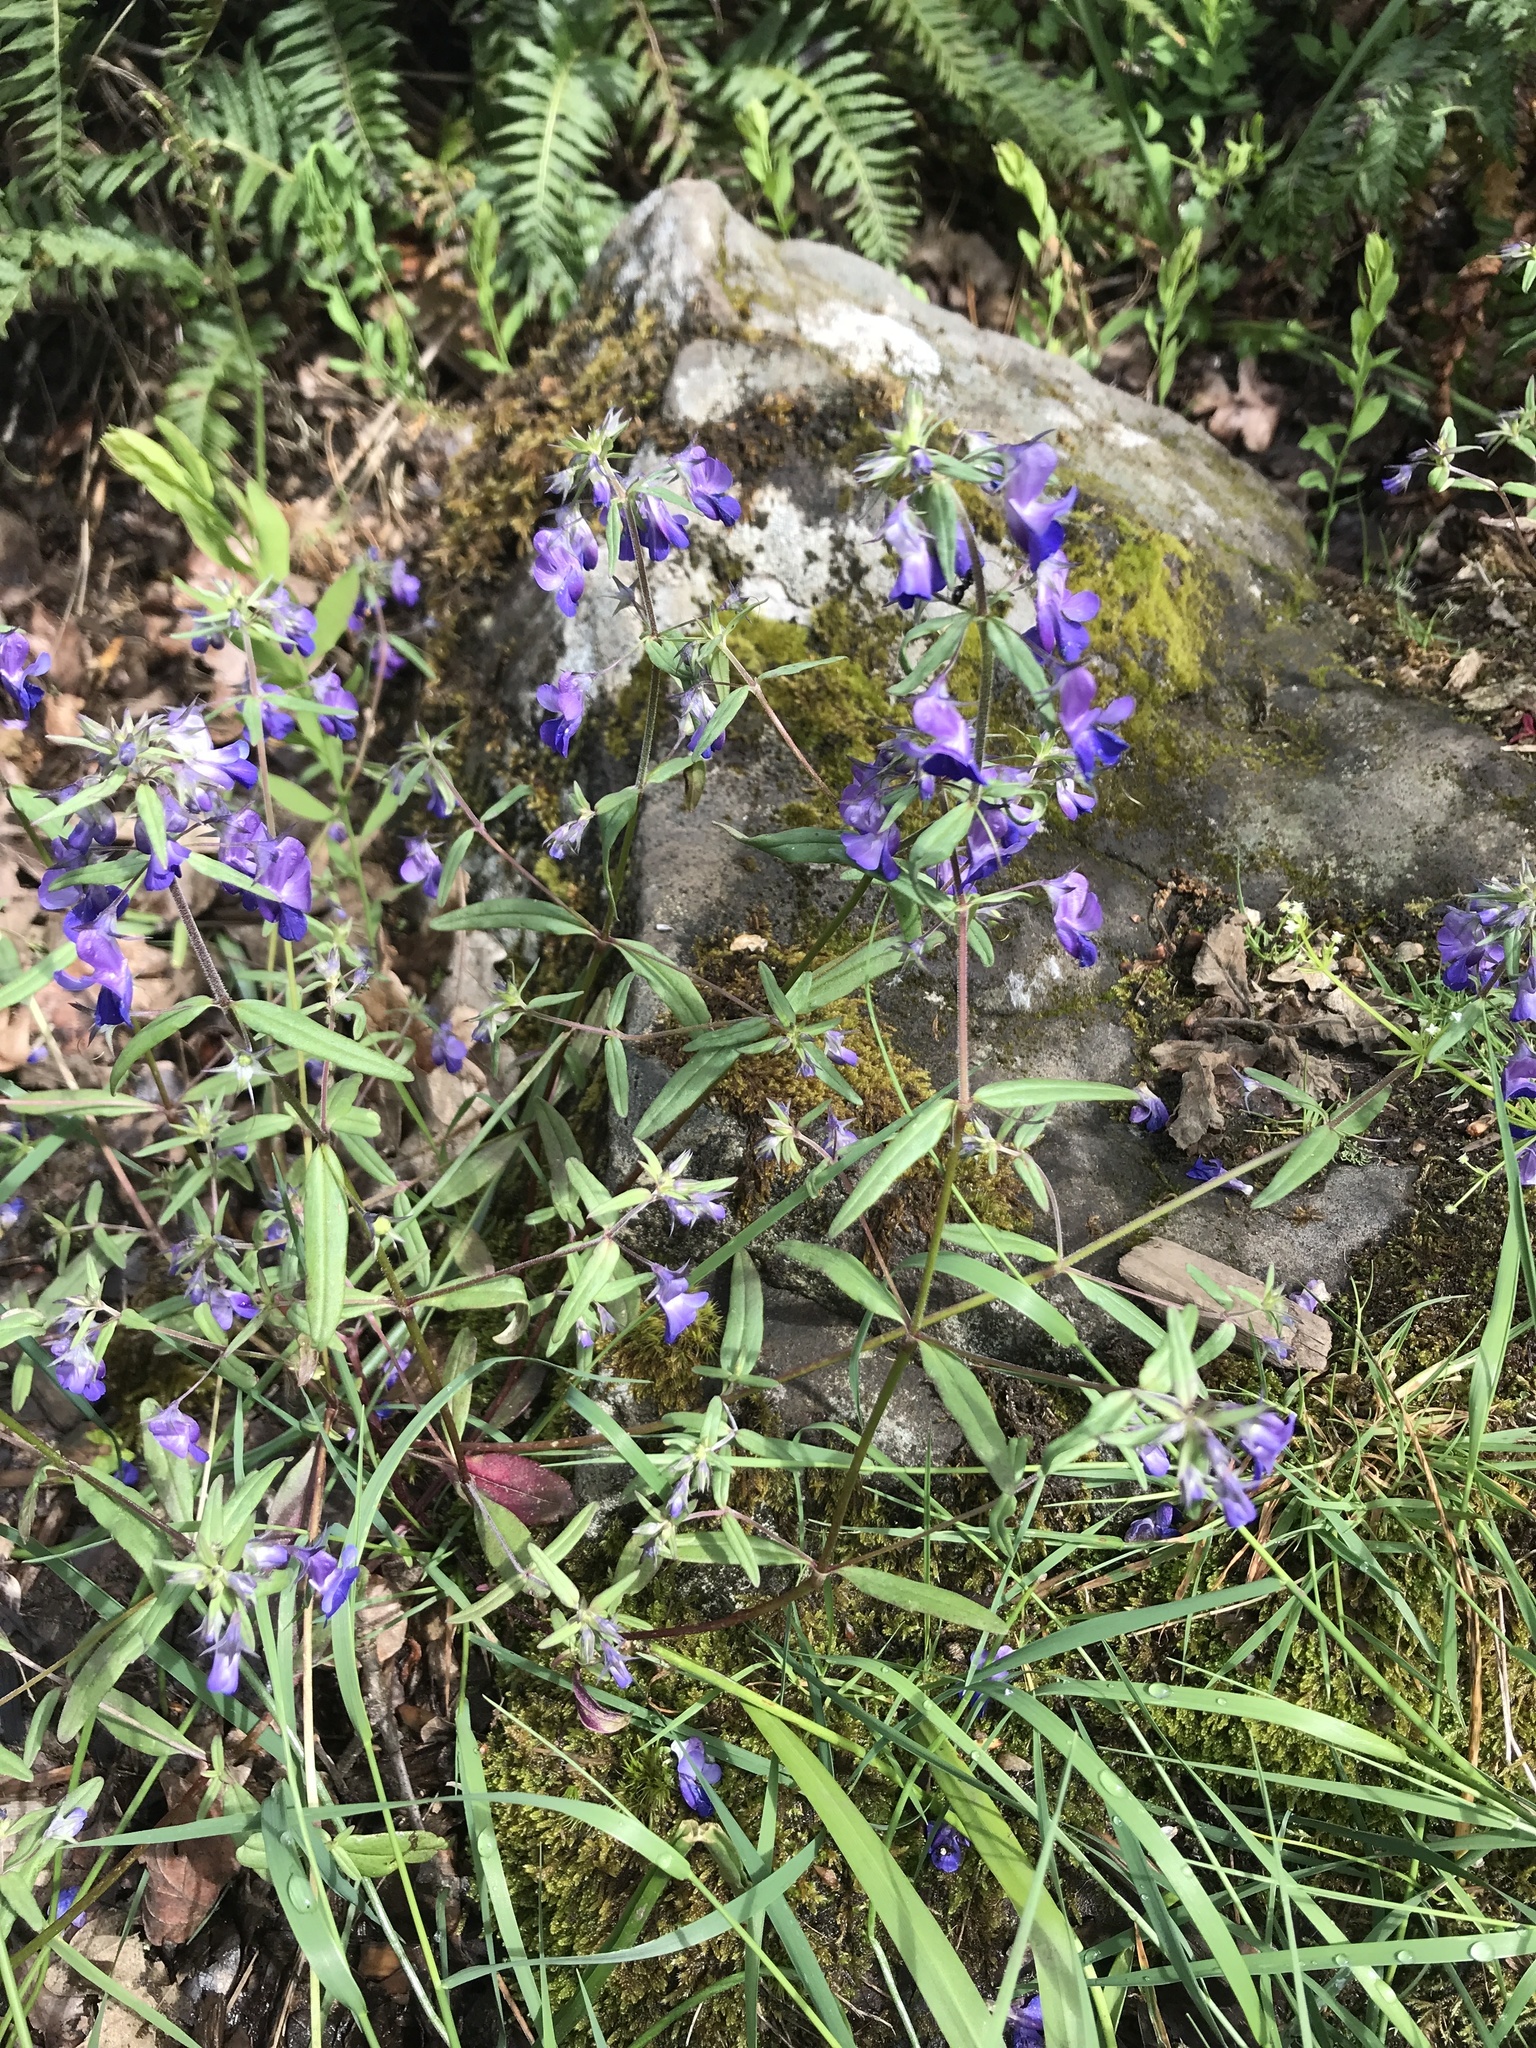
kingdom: Plantae
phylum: Tracheophyta
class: Magnoliopsida
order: Lamiales
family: Plantaginaceae
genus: Collinsia
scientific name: Collinsia grandiflora
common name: Large-flower blue-eyed-mary
